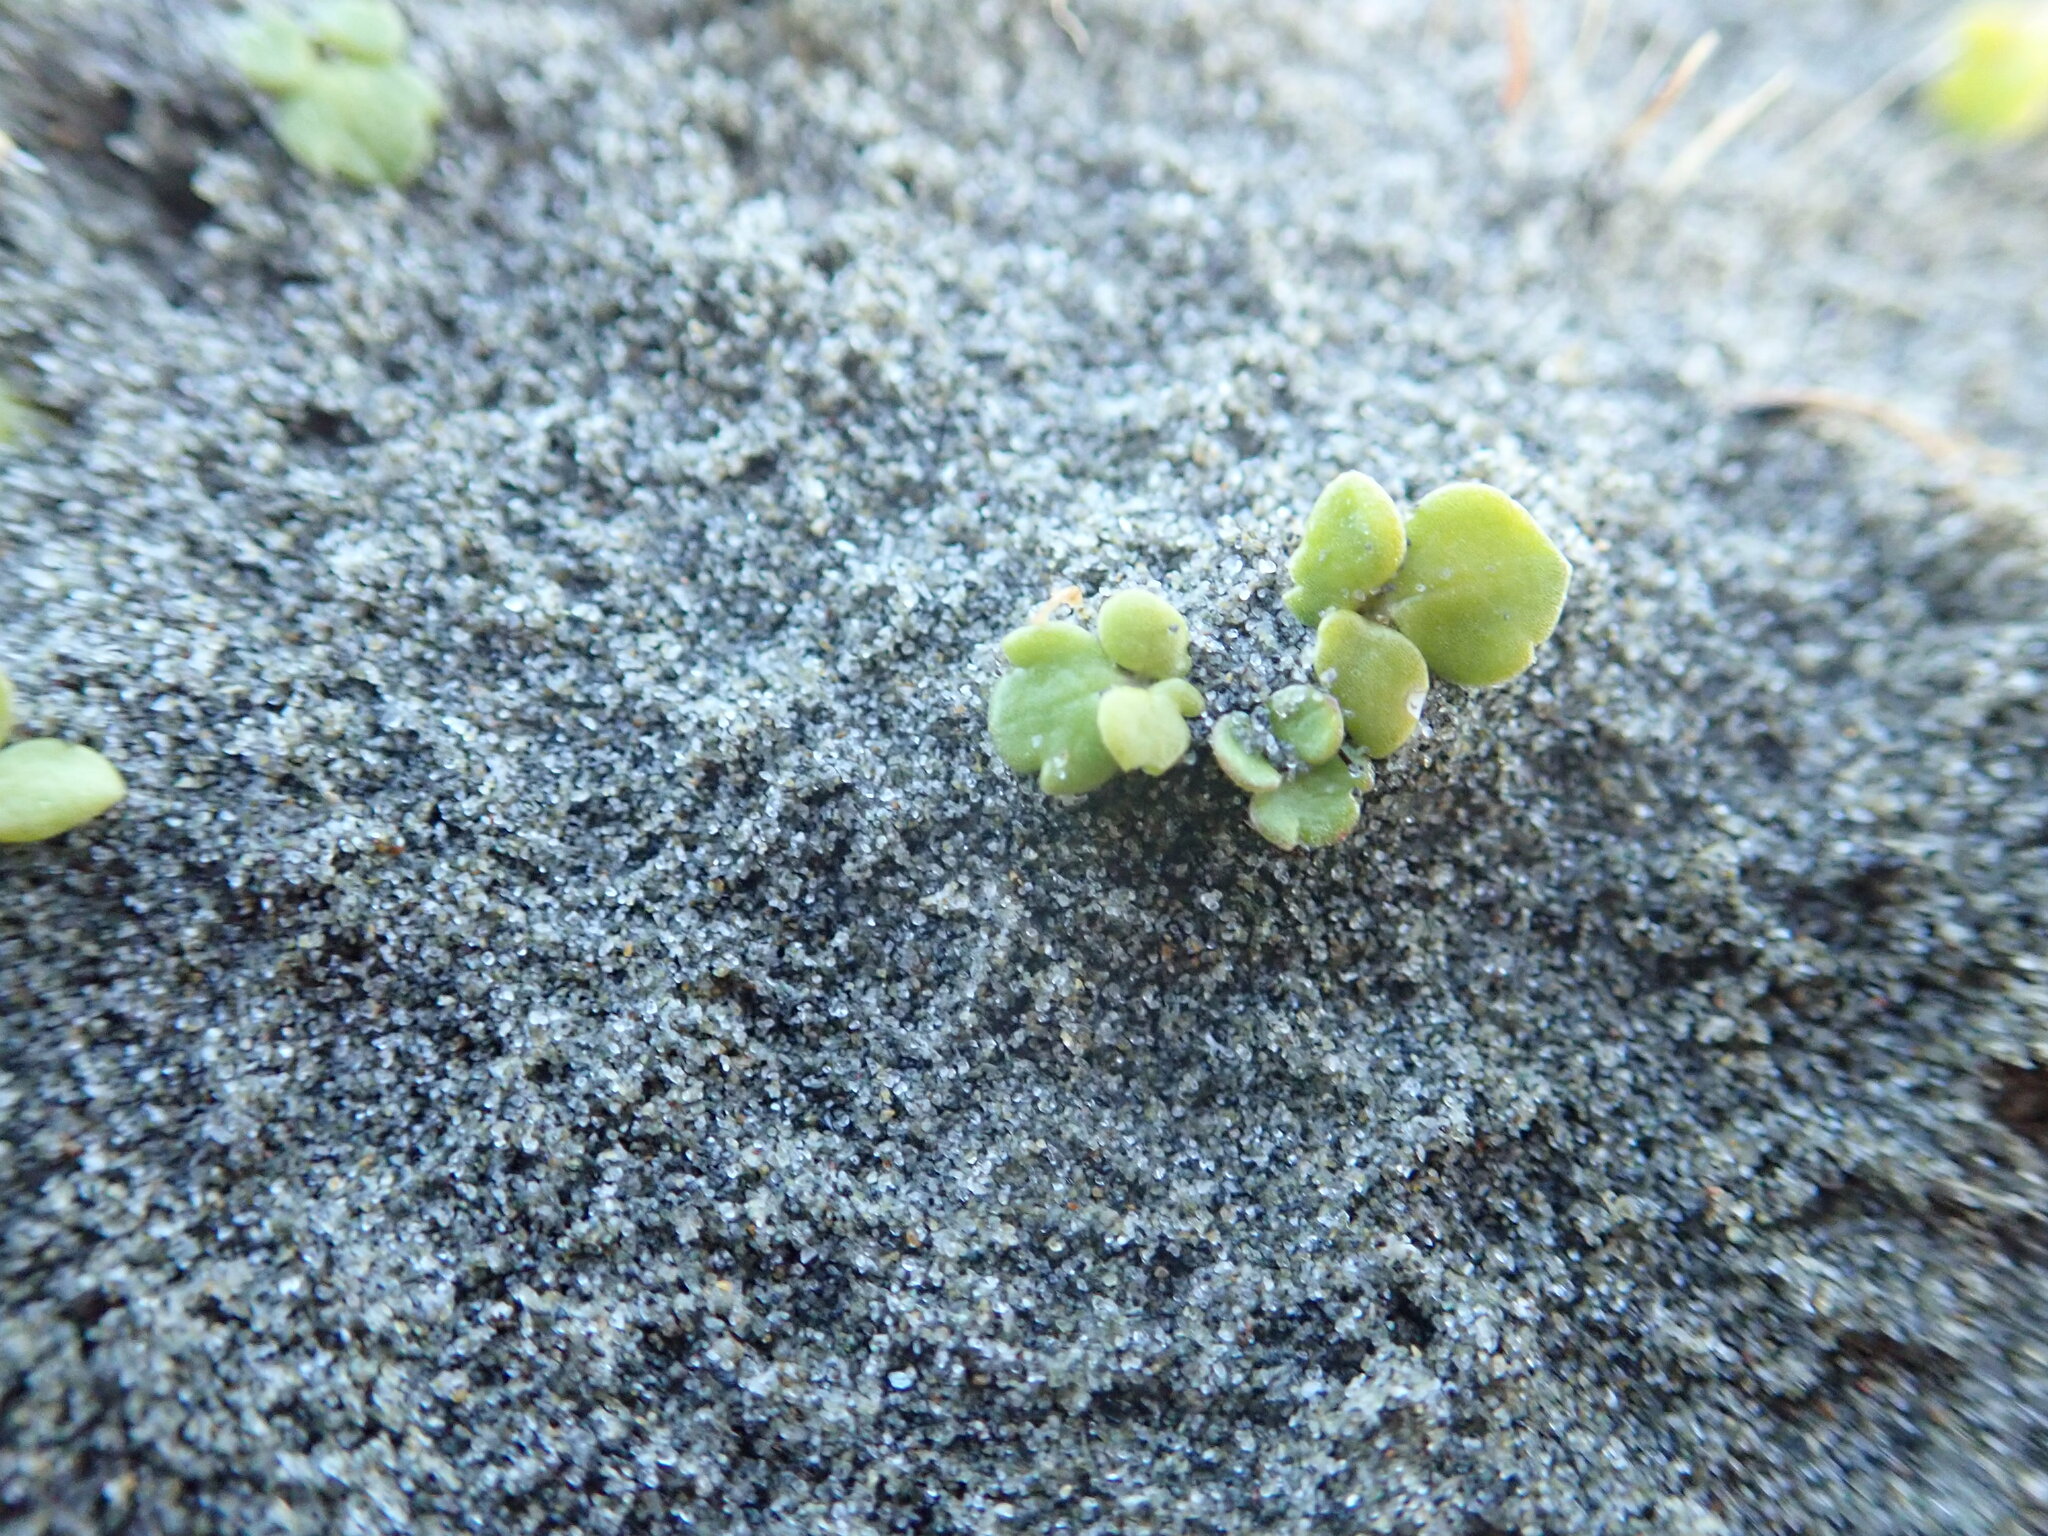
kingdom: Plantae
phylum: Tracheophyta
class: Magnoliopsida
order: Ranunculales
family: Ranunculaceae
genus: Ranunculus
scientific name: Ranunculus acaulis
